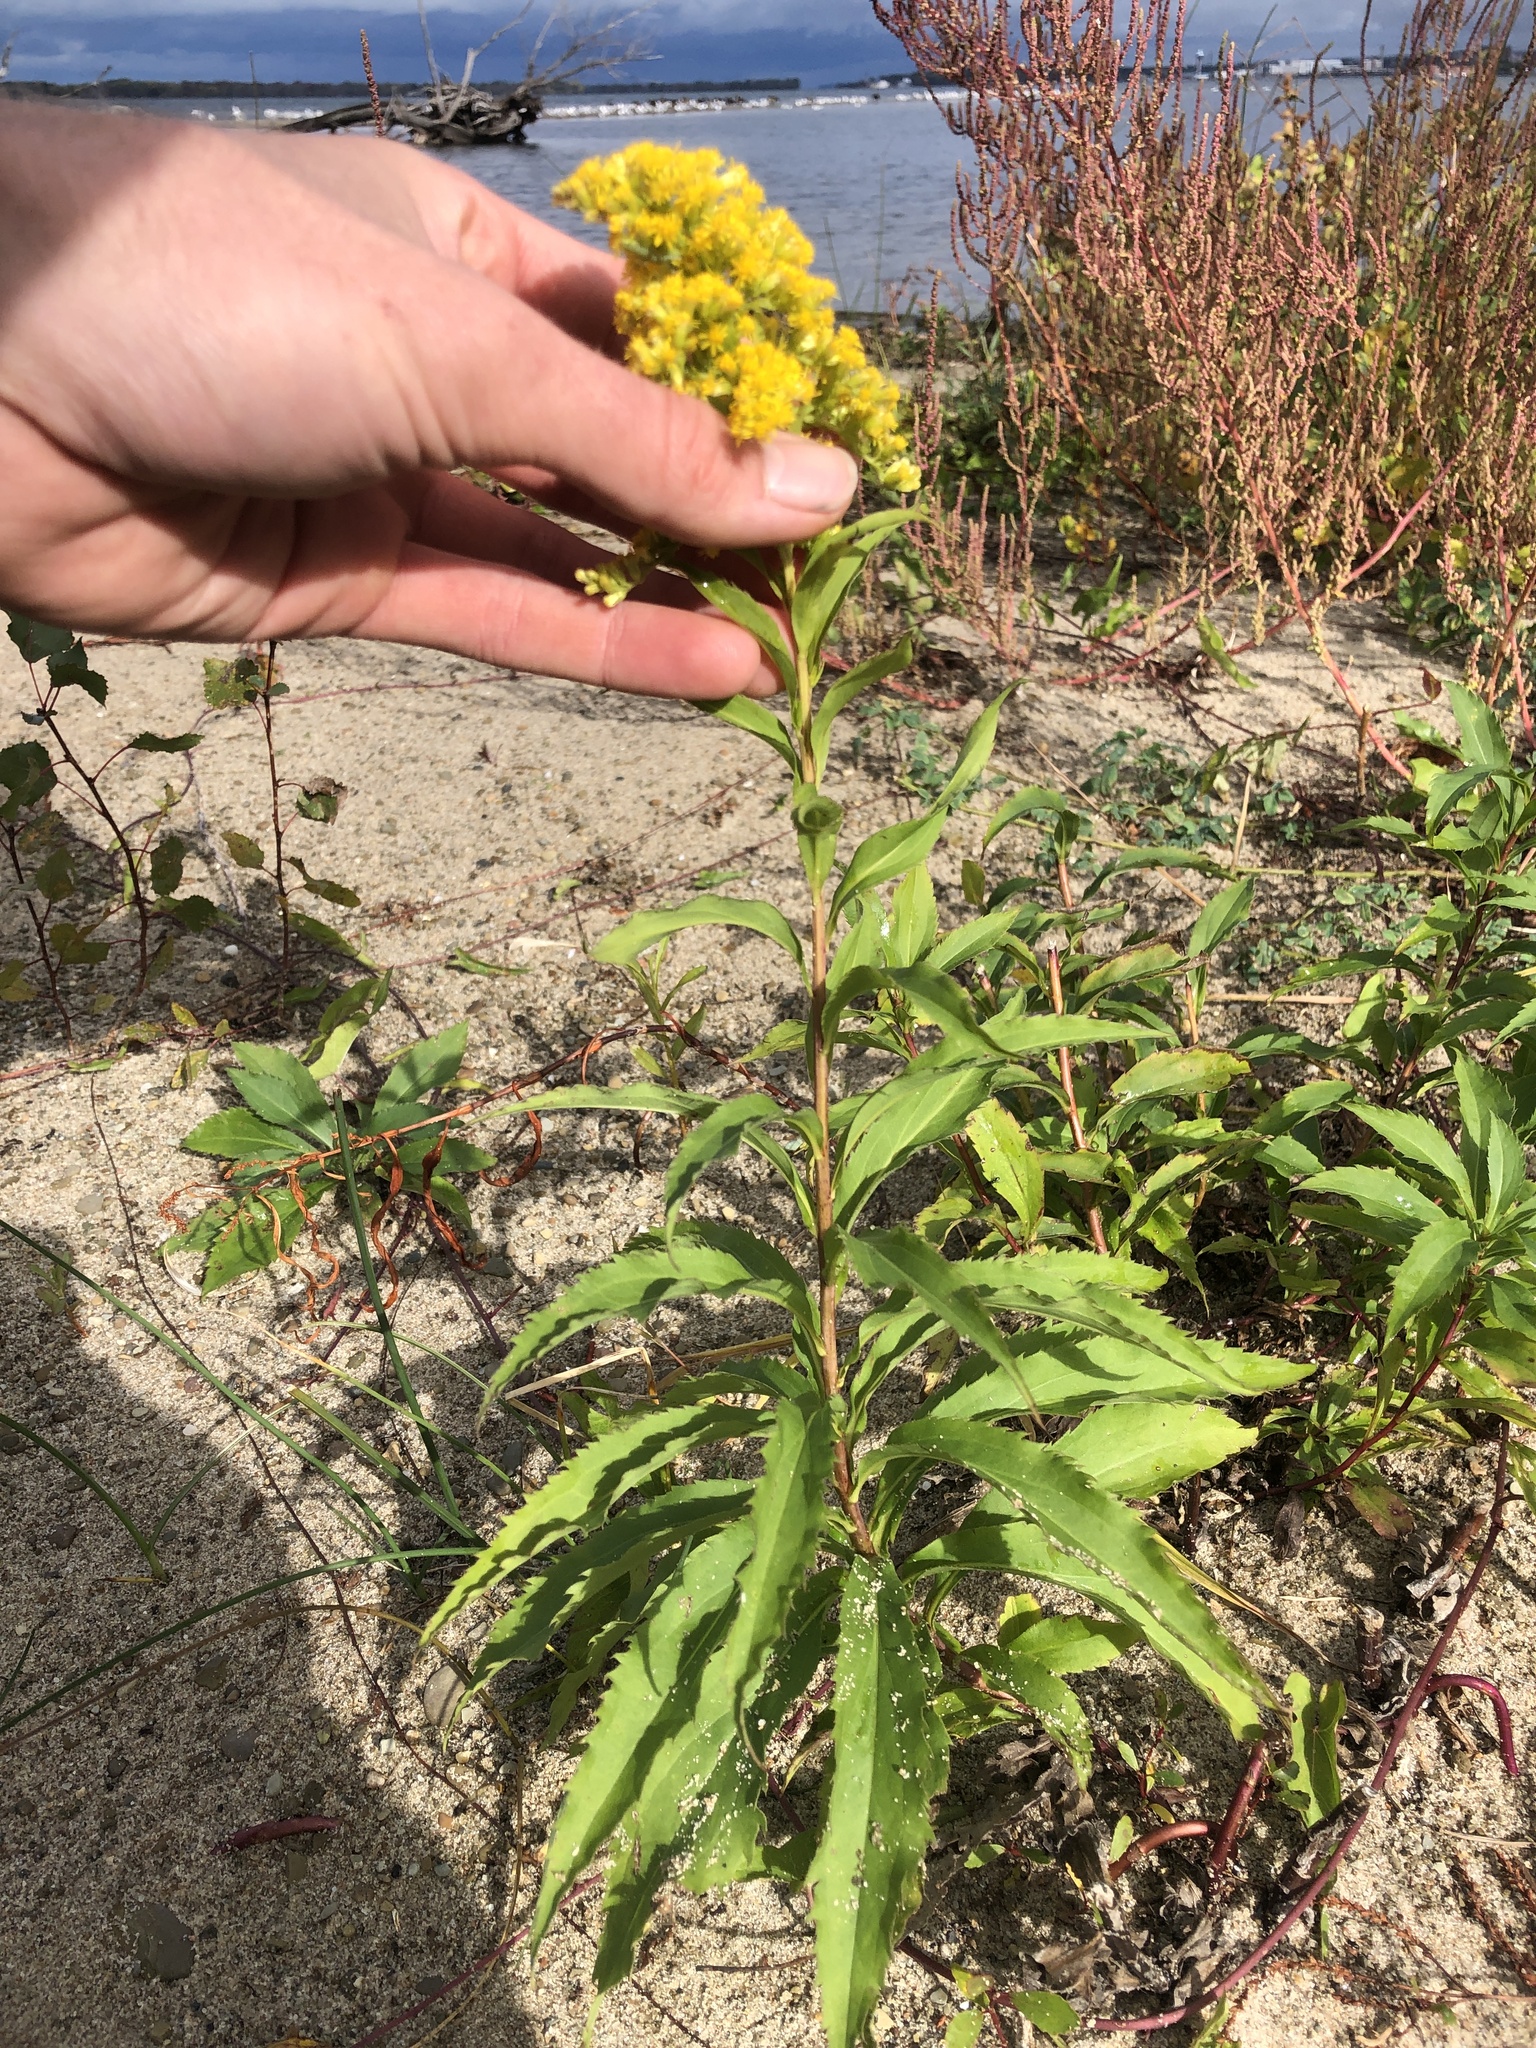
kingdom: Plantae
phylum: Tracheophyta
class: Magnoliopsida
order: Asterales
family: Asteraceae
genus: Solidago
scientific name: Solidago gigantea
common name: Giant goldenrod
